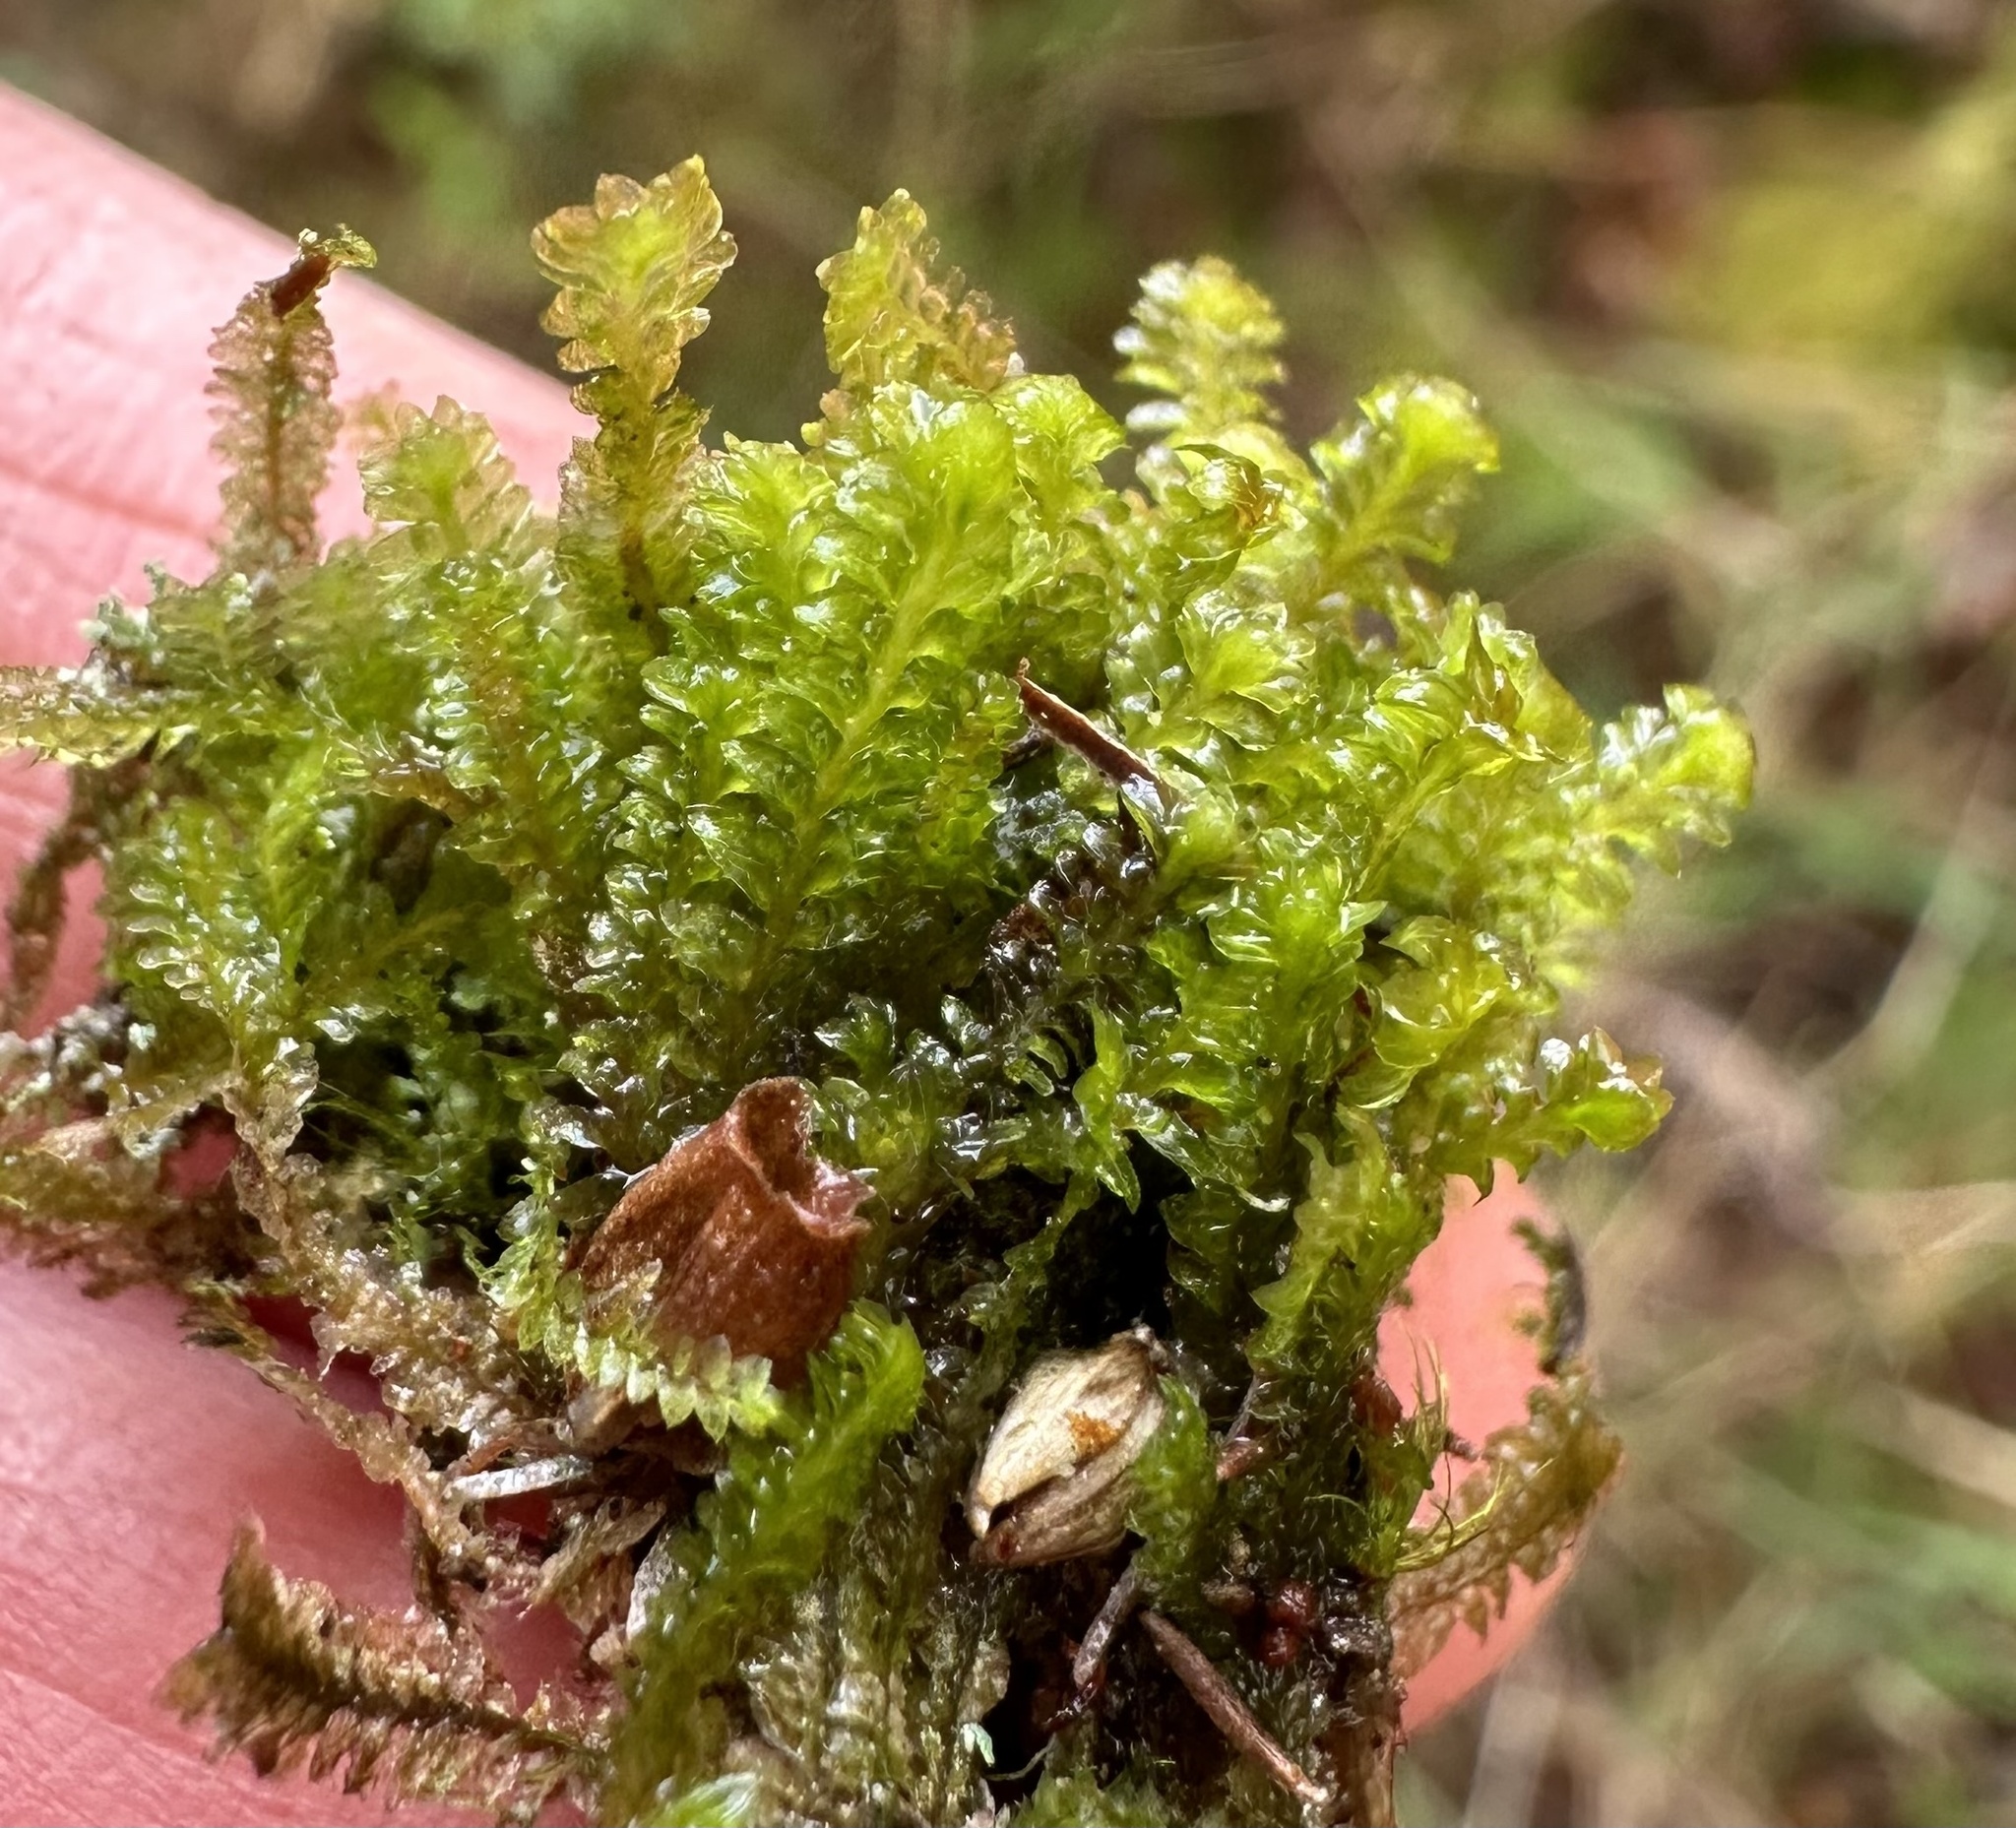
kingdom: Plantae
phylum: Marchantiophyta
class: Jungermanniopsida
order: Jungermanniales
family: Scapaniaceae
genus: Diplophyllum
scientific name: Diplophyllum albicans
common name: White earwort
